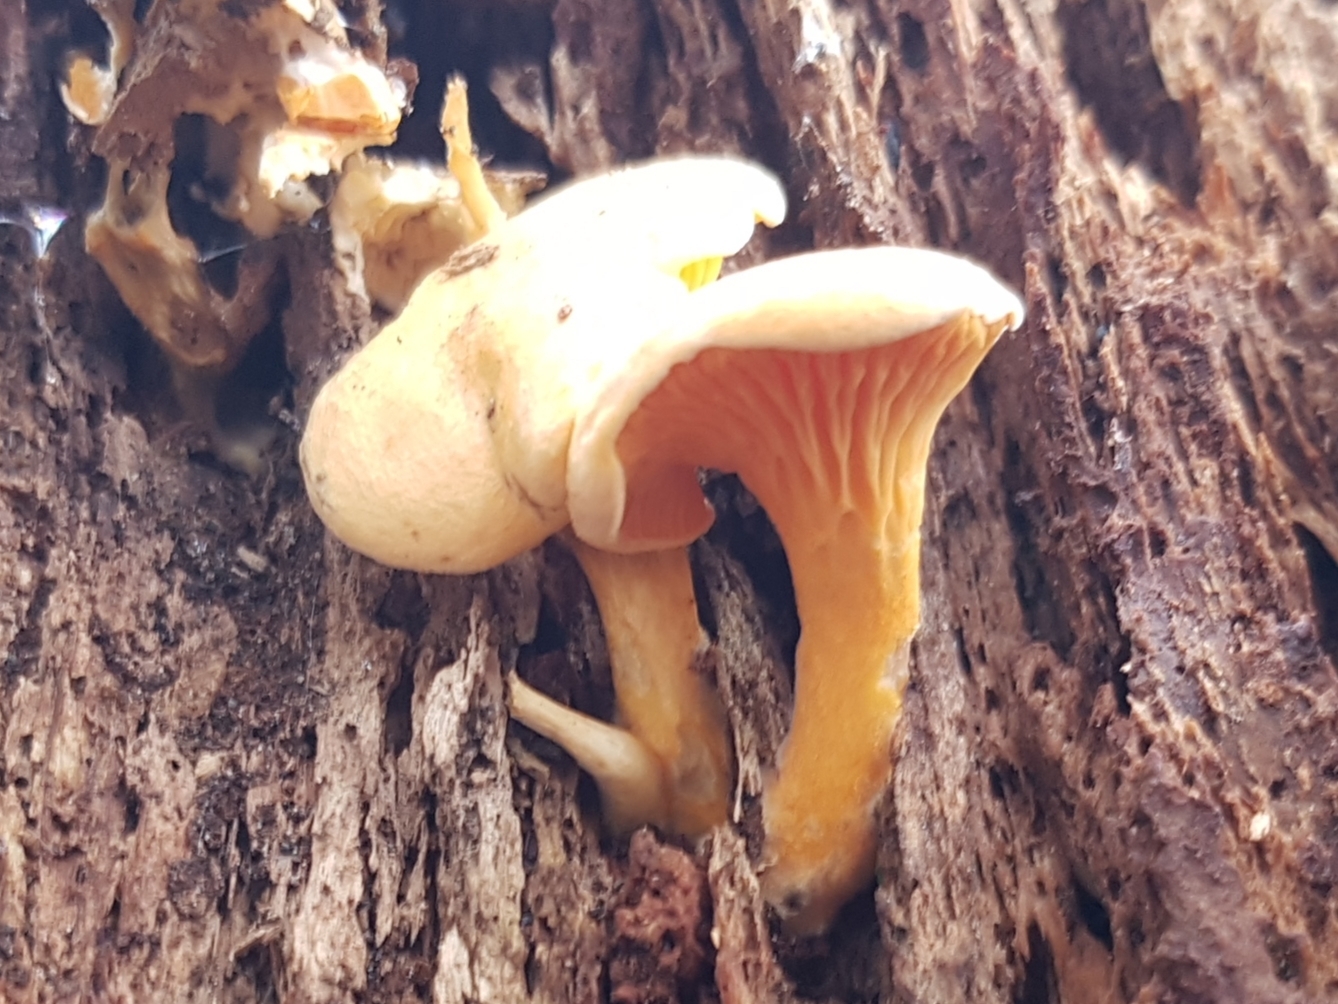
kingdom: Fungi
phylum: Basidiomycota
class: Agaricomycetes
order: Boletales
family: Hygrophoropsidaceae
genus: Hygrophoropsis
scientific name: Hygrophoropsis aurantiaca
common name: False chanterelle
